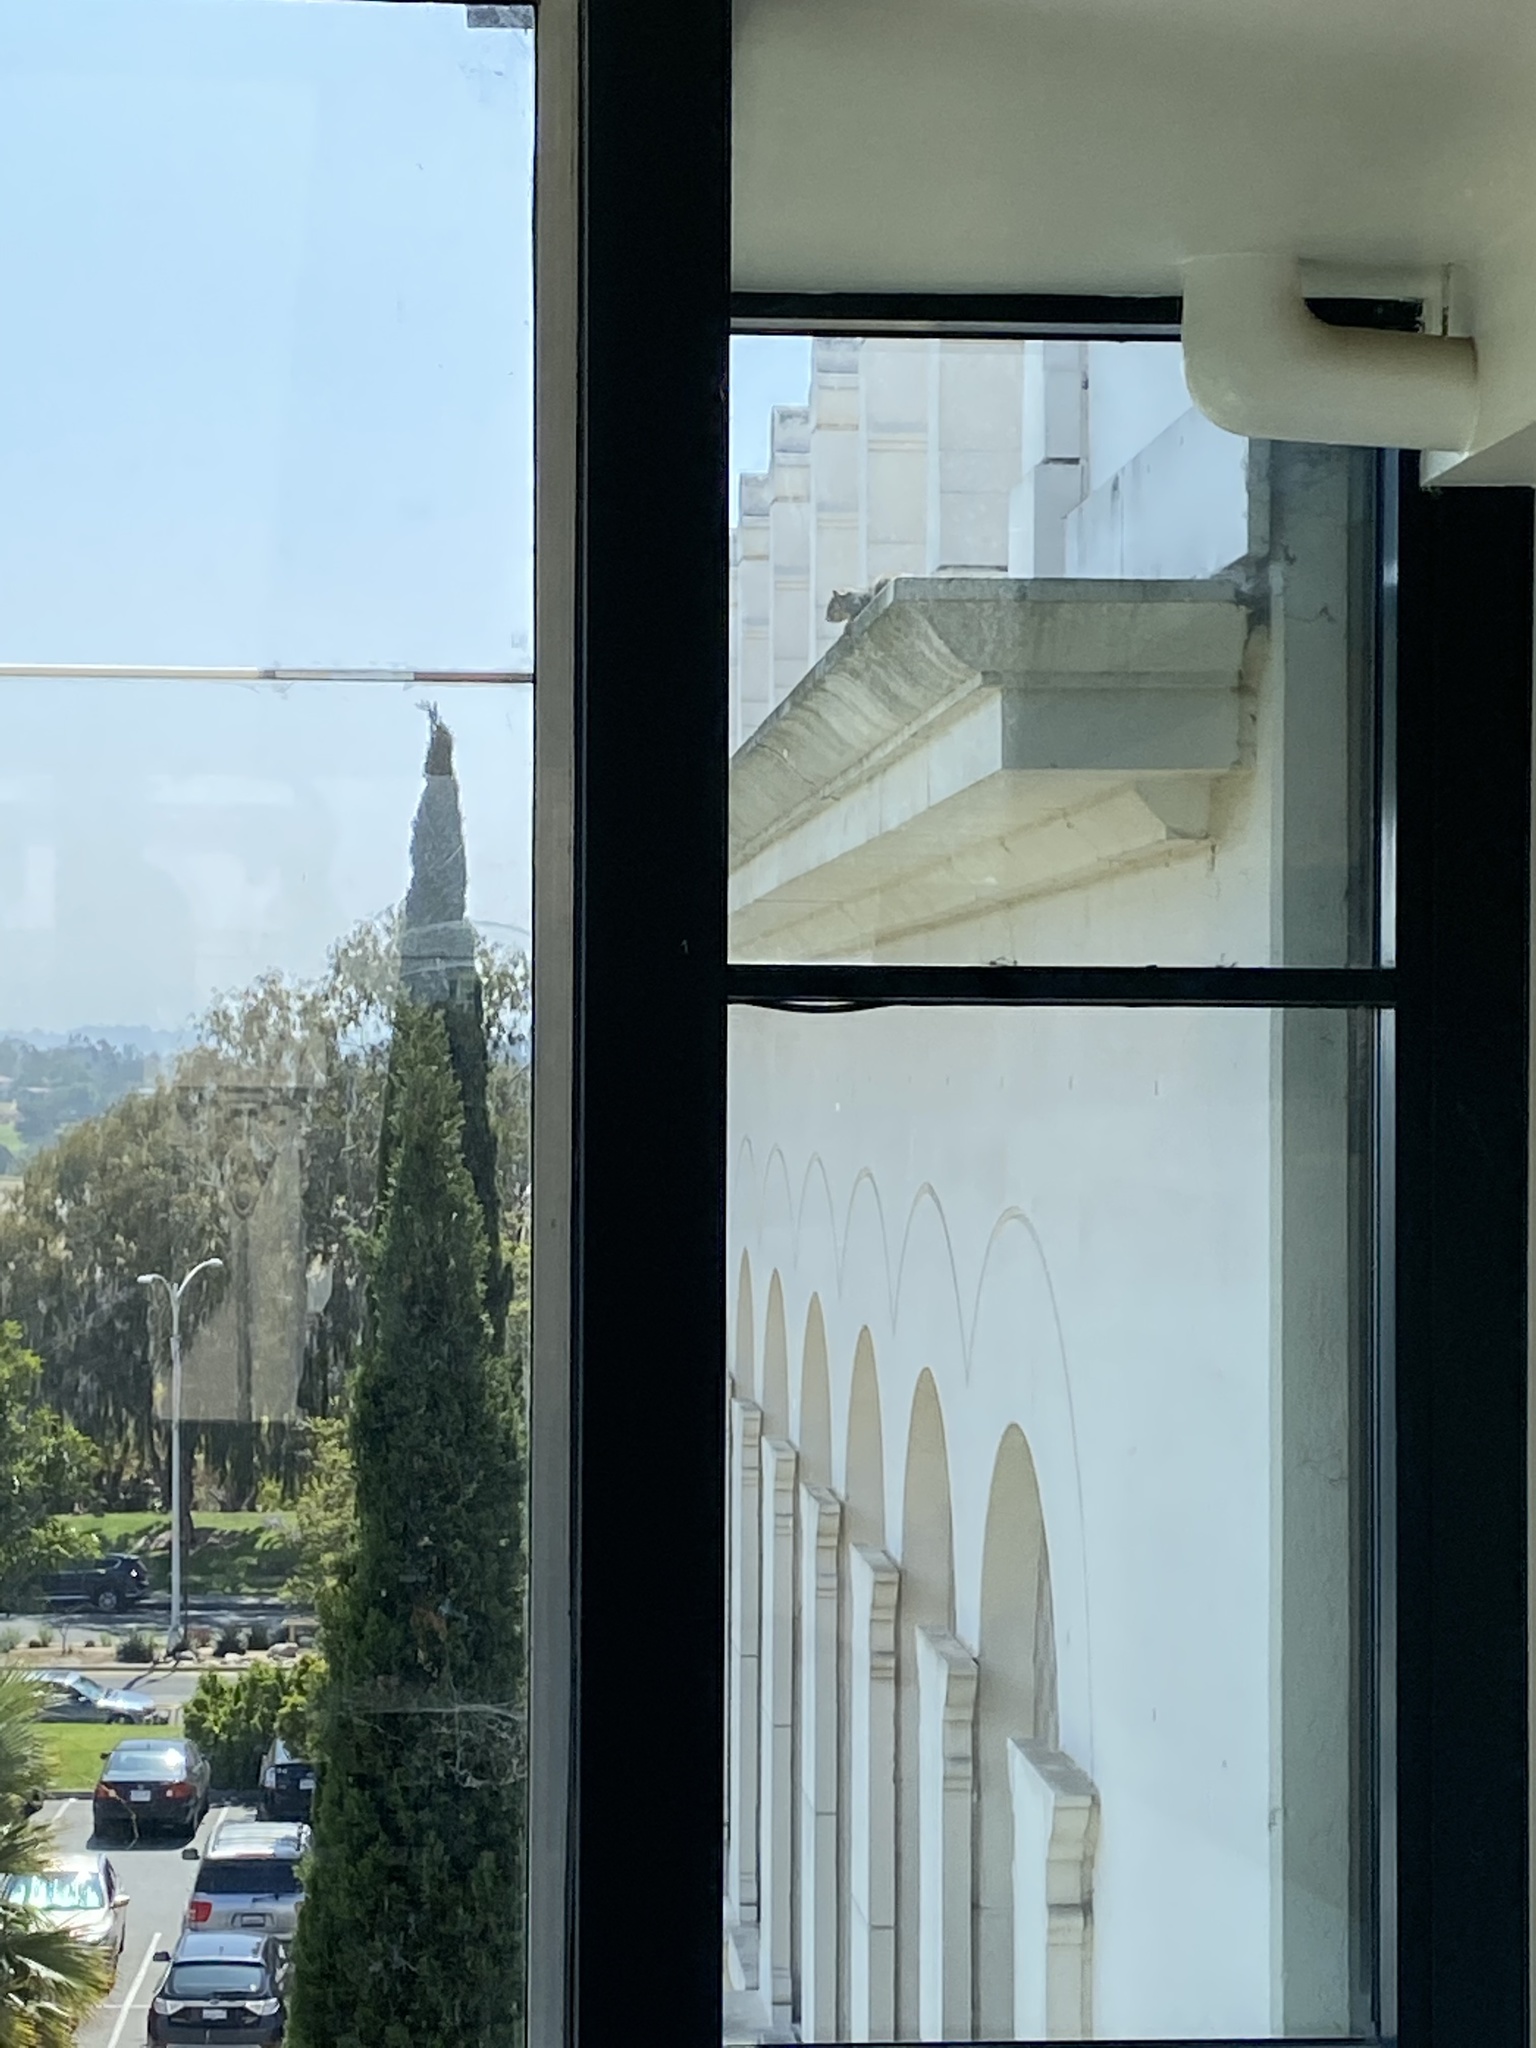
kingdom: Animalia
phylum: Chordata
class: Mammalia
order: Rodentia
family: Sciuridae
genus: Sciurus
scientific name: Sciurus niger
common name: Fox squirrel
